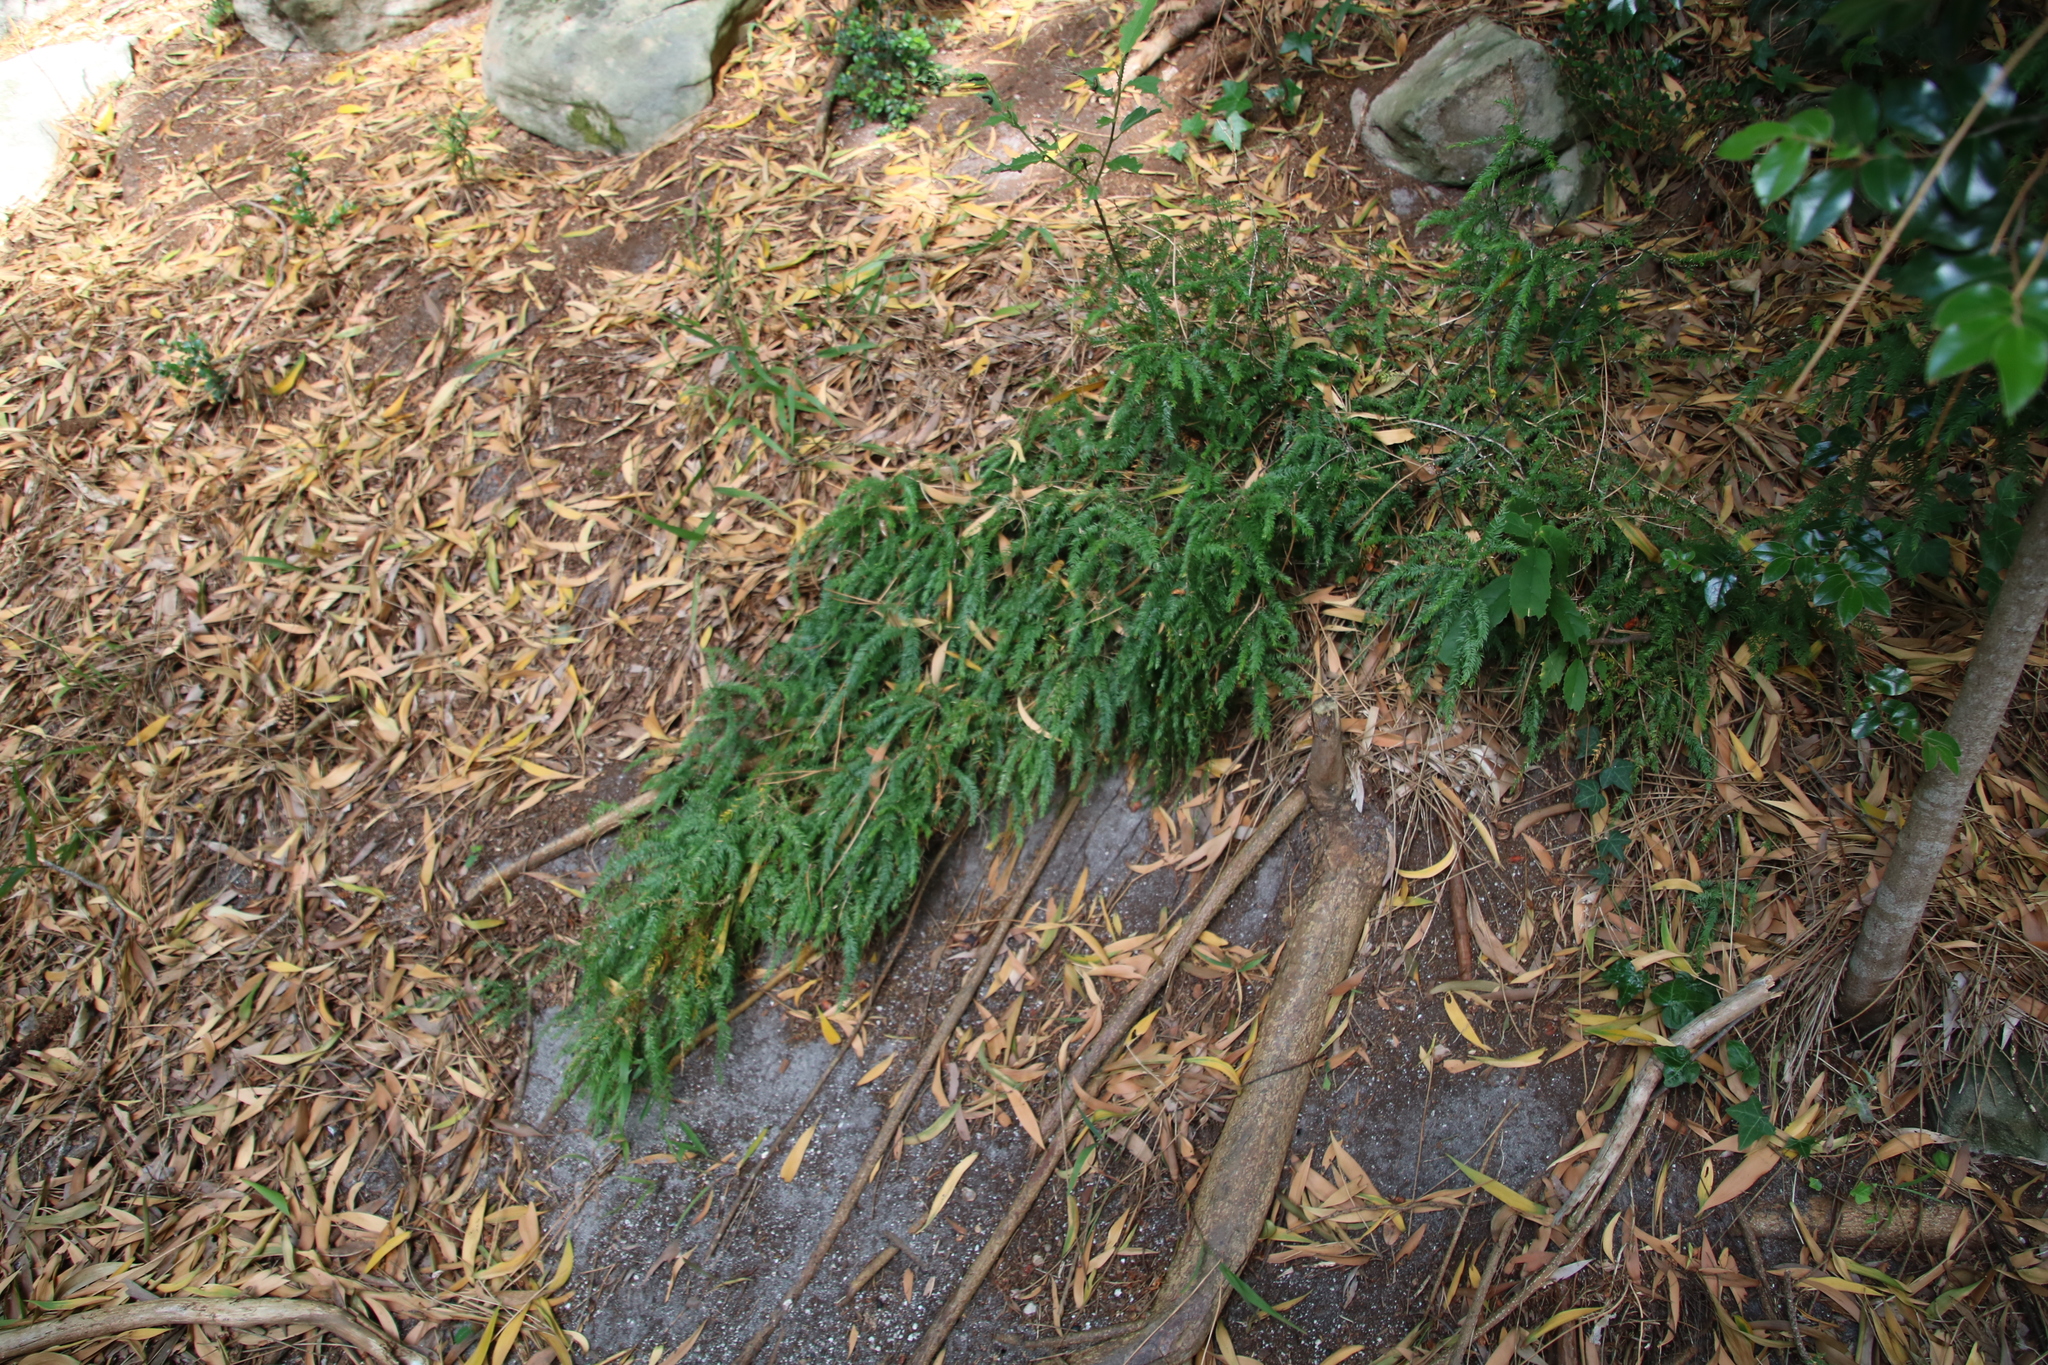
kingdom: Plantae
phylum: Tracheophyta
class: Liliopsida
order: Asparagales
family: Asparagaceae
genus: Asparagus
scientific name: Asparagus scandens
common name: Asparagus-fern
